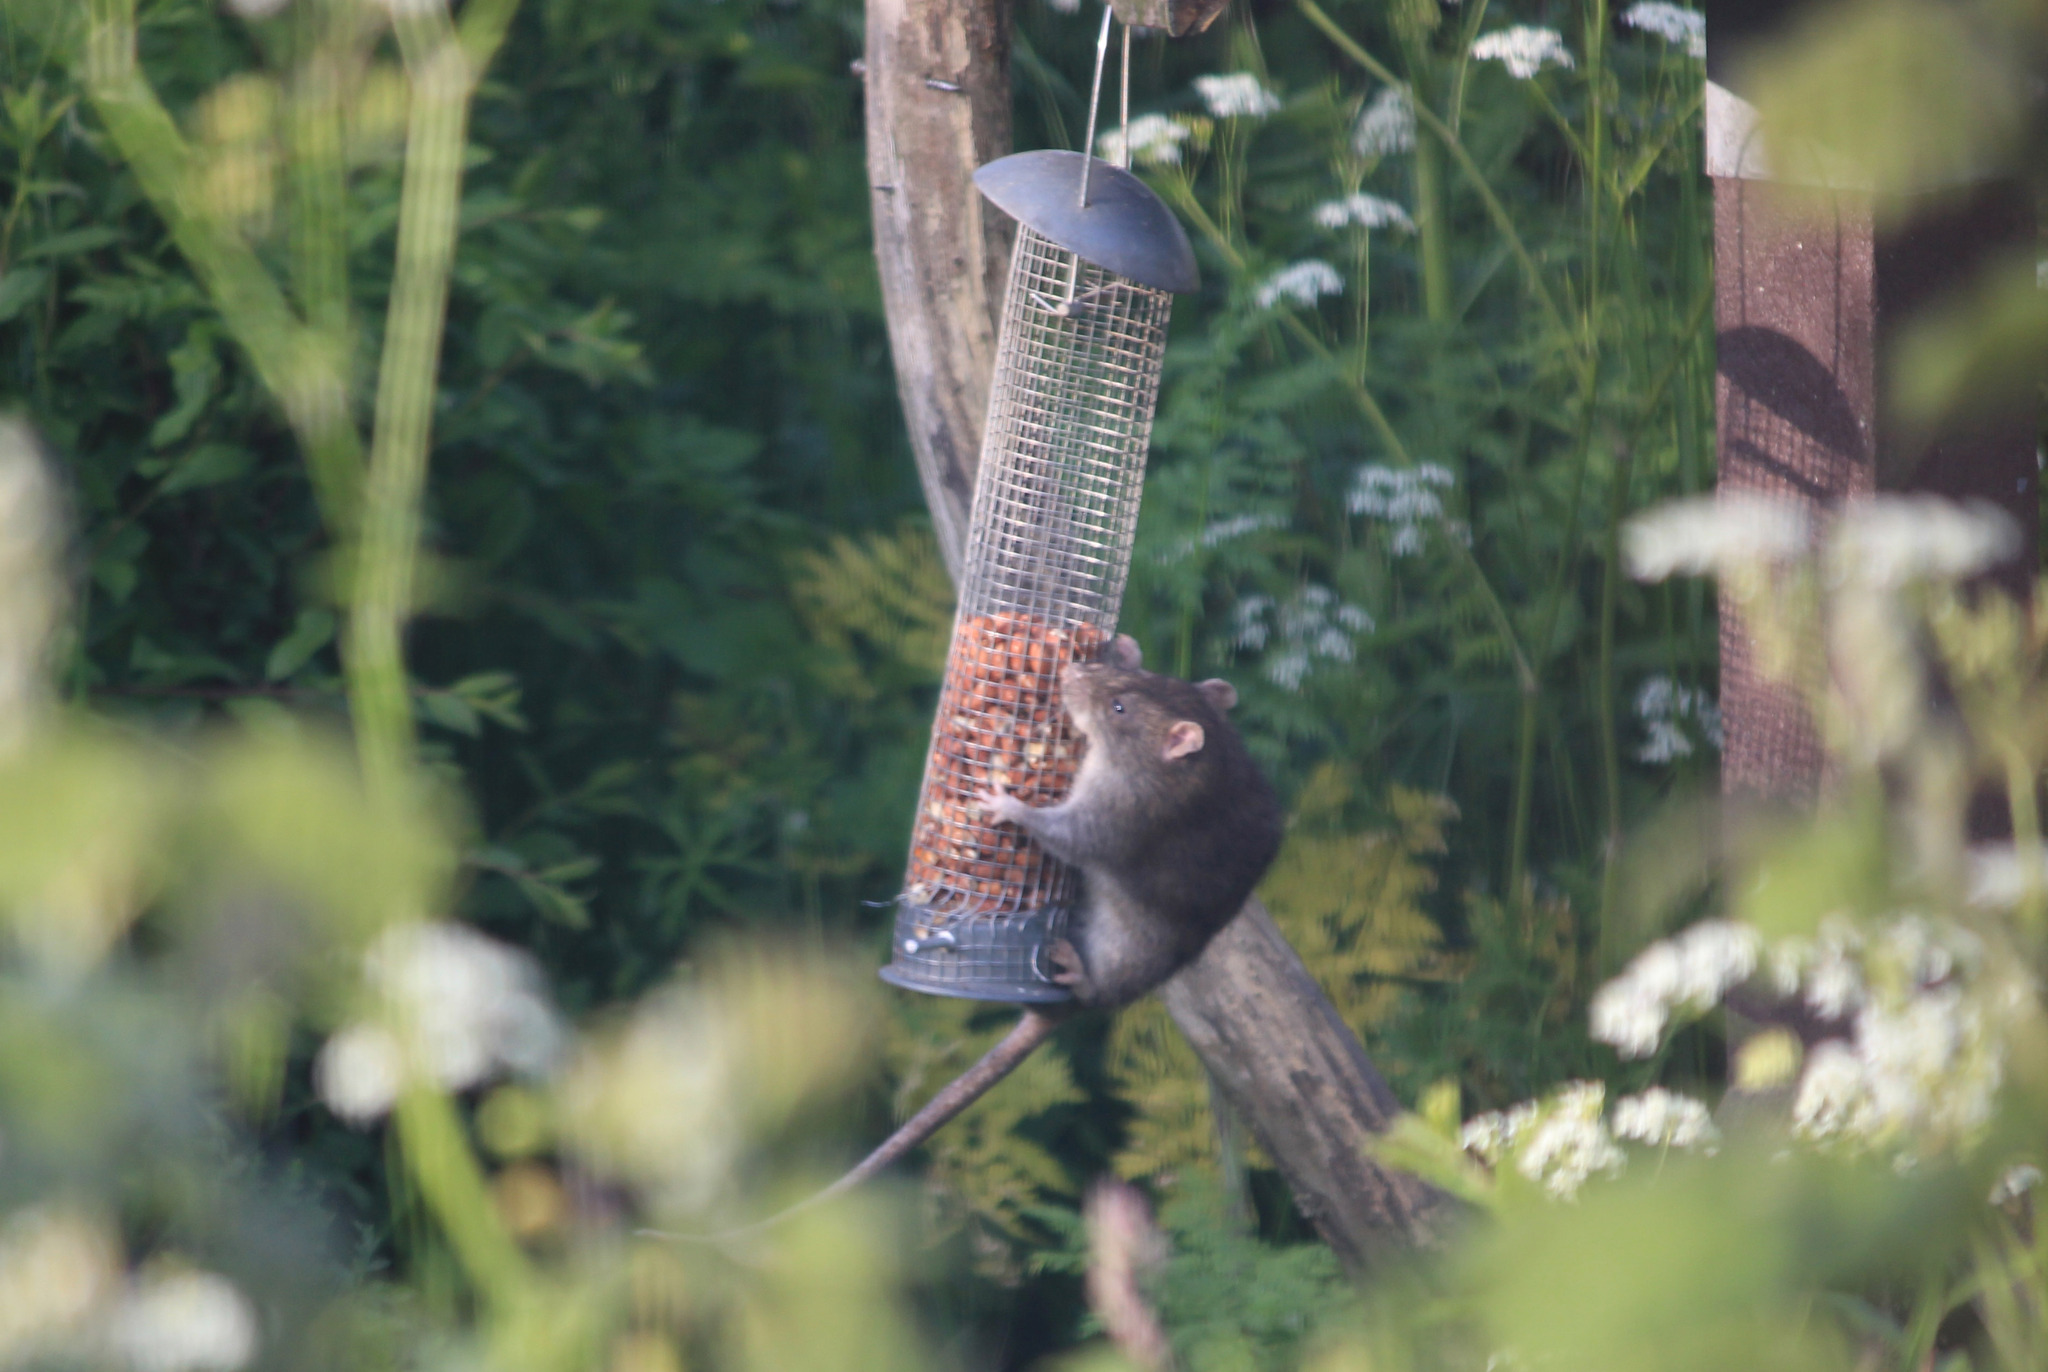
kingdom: Animalia
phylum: Chordata
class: Mammalia
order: Rodentia
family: Muridae
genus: Rattus
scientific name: Rattus norvegicus
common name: Brown rat
